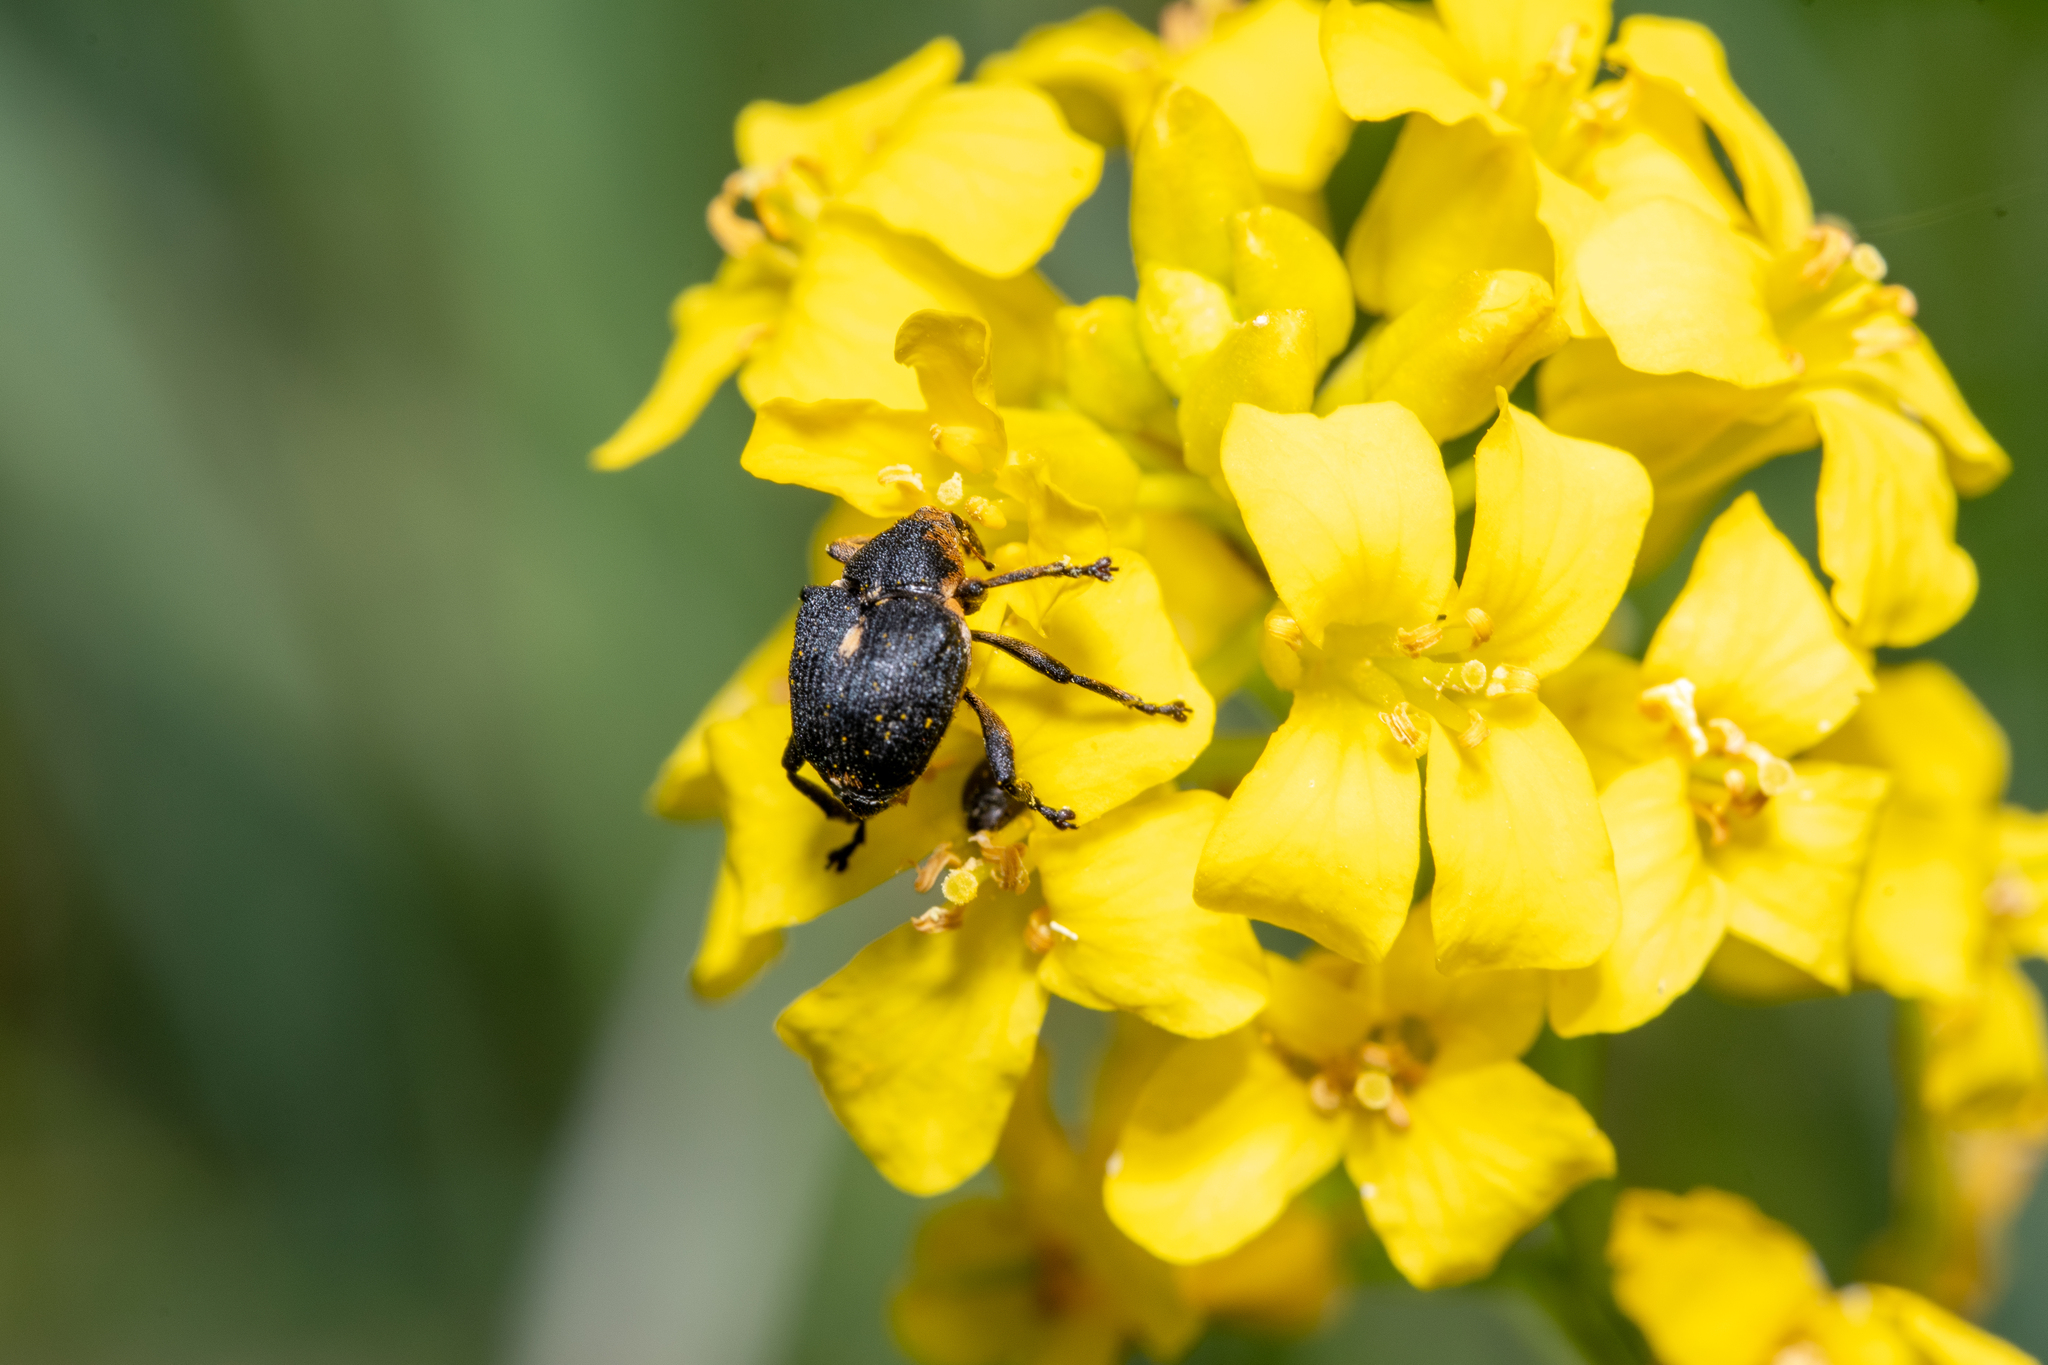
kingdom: Animalia
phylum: Arthropoda
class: Insecta
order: Coleoptera
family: Curculionidae
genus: Mononychus
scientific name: Mononychus punctumalbum
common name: Iris weevil
